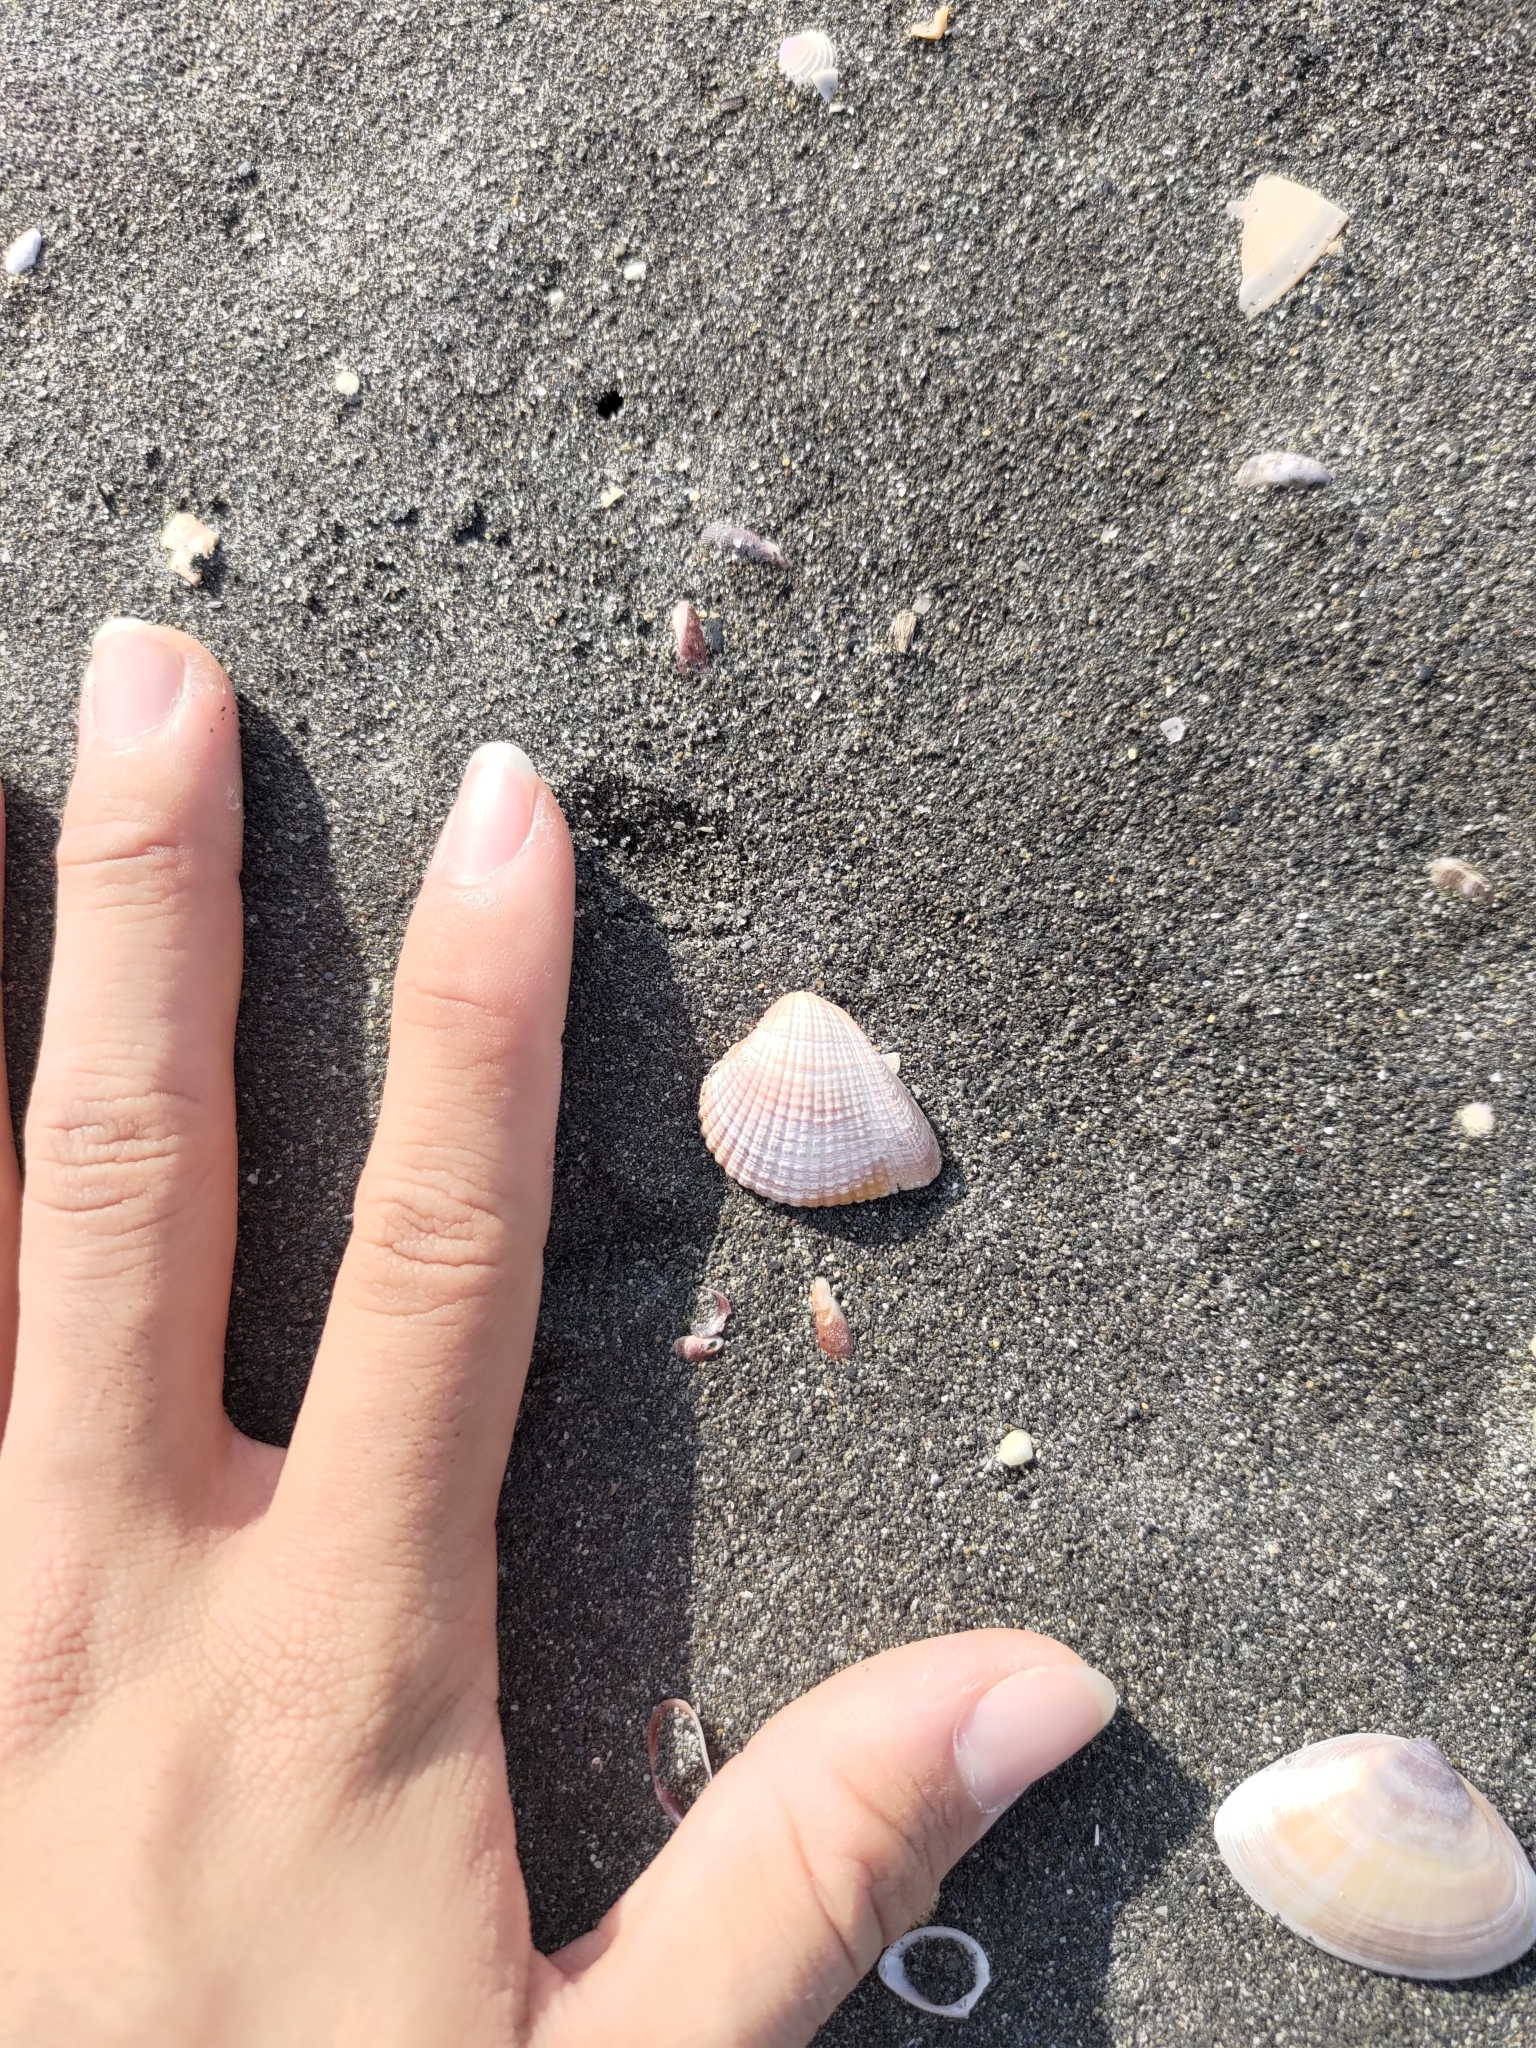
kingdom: Animalia
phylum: Mollusca
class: Bivalvia
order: Venerida
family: Veneridae
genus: Anomalodiscus
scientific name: Anomalodiscus squamosus
